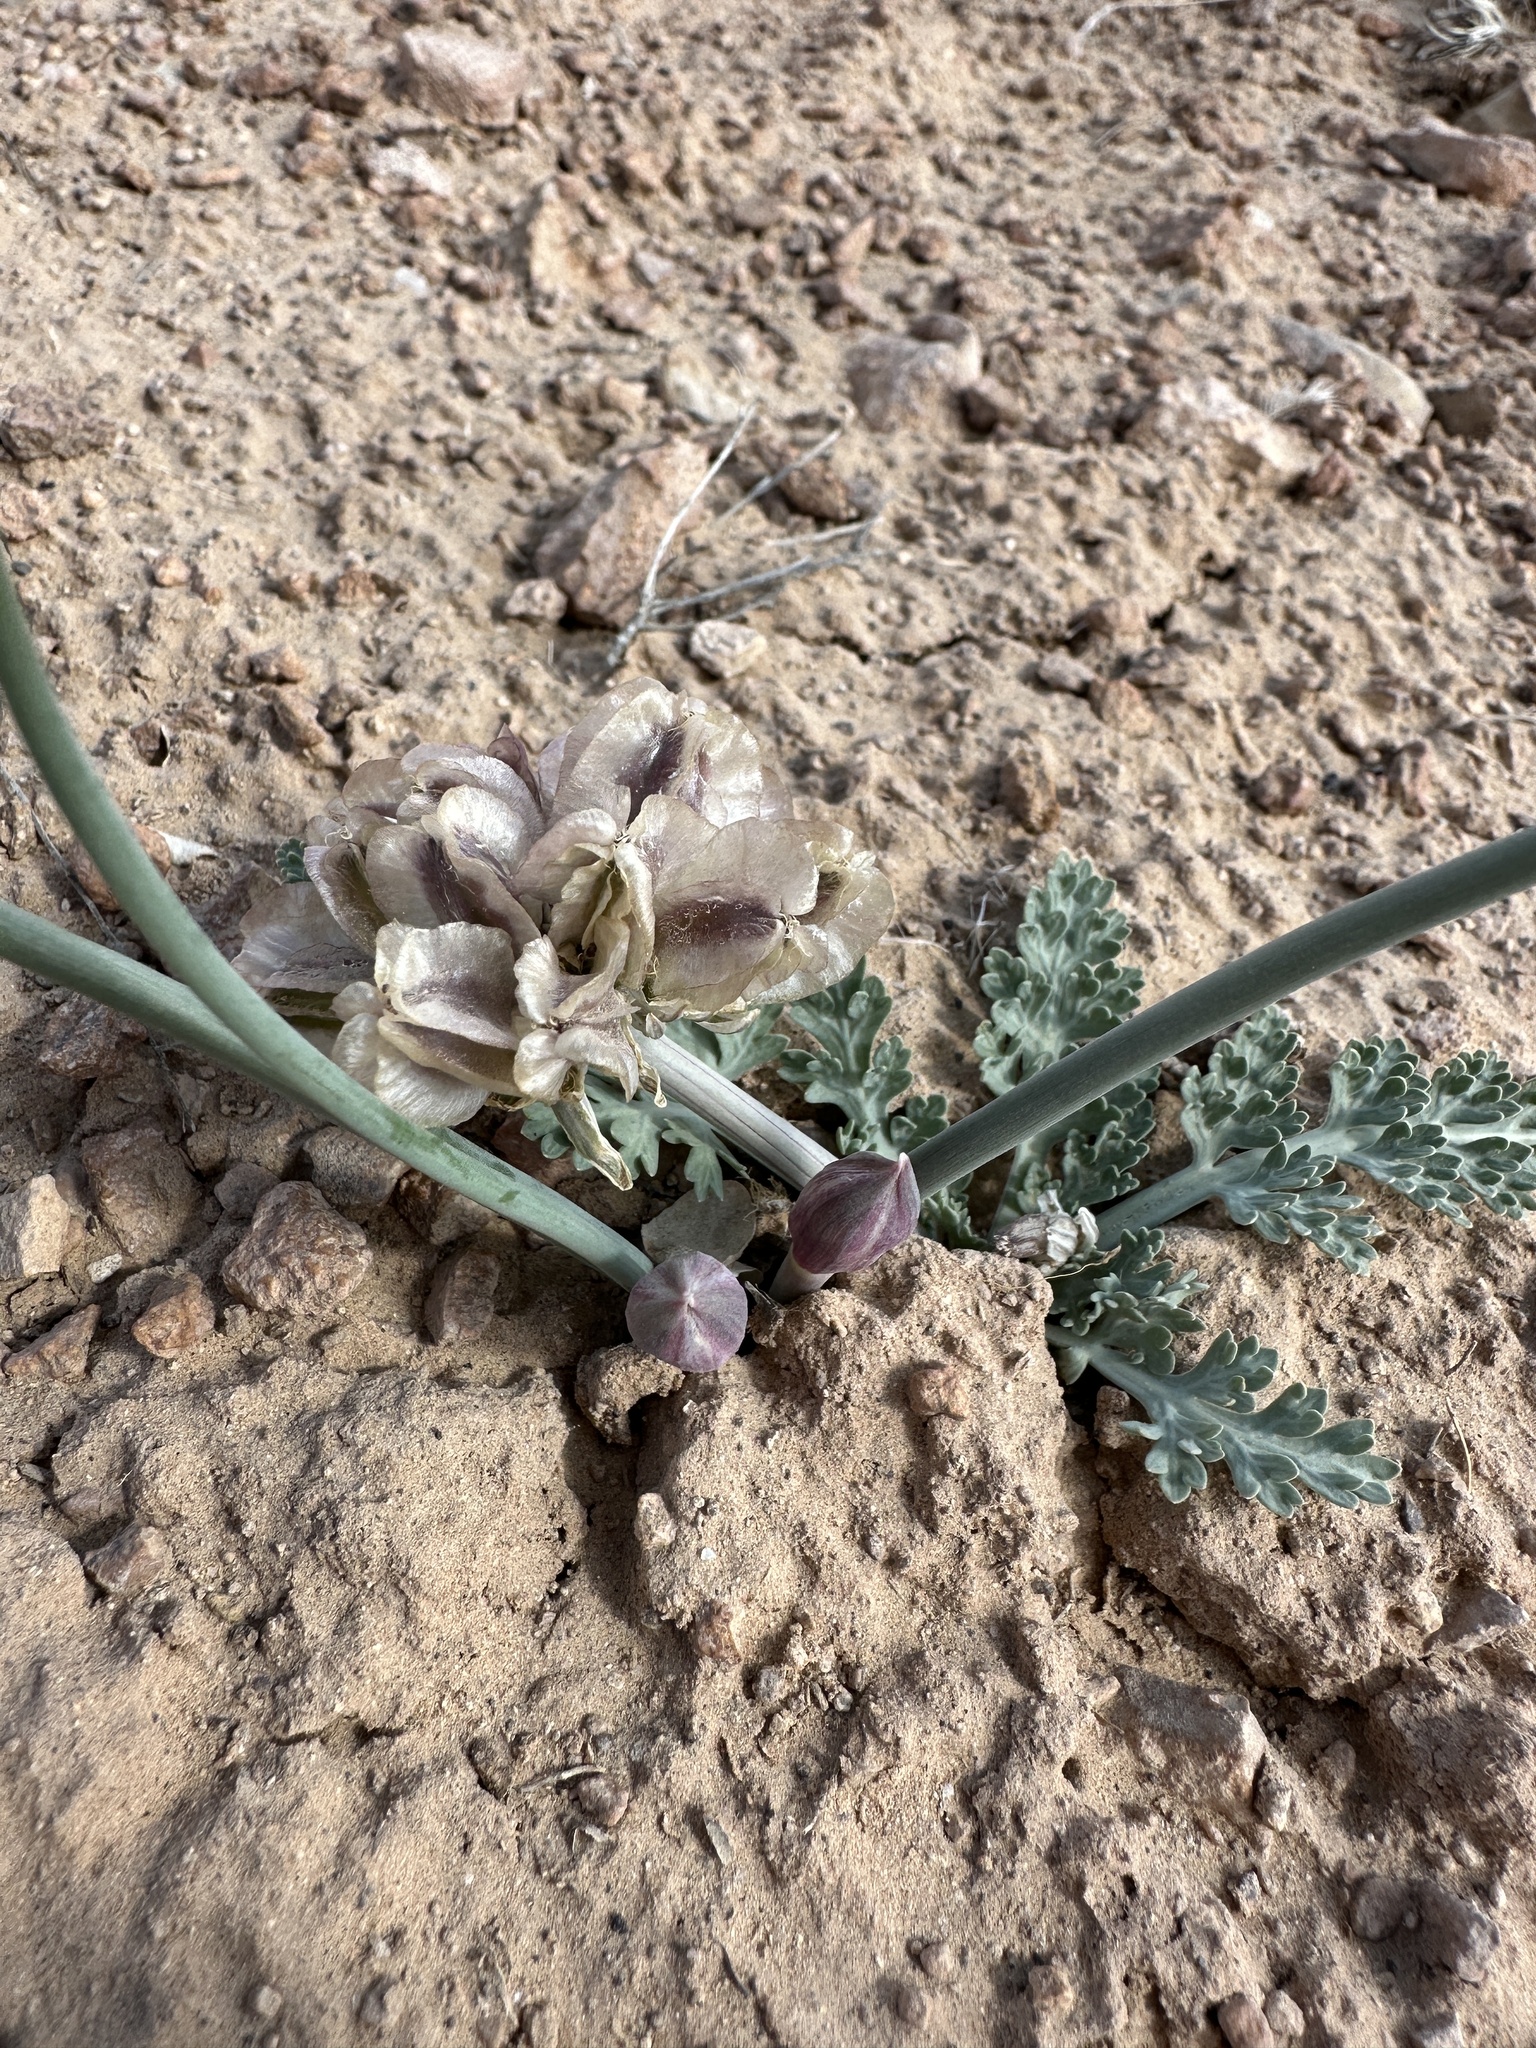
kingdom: Plantae
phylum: Tracheophyta
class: Magnoliopsida
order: Apiales
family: Apiaceae
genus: Vesper
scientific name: Vesper purpurascens
